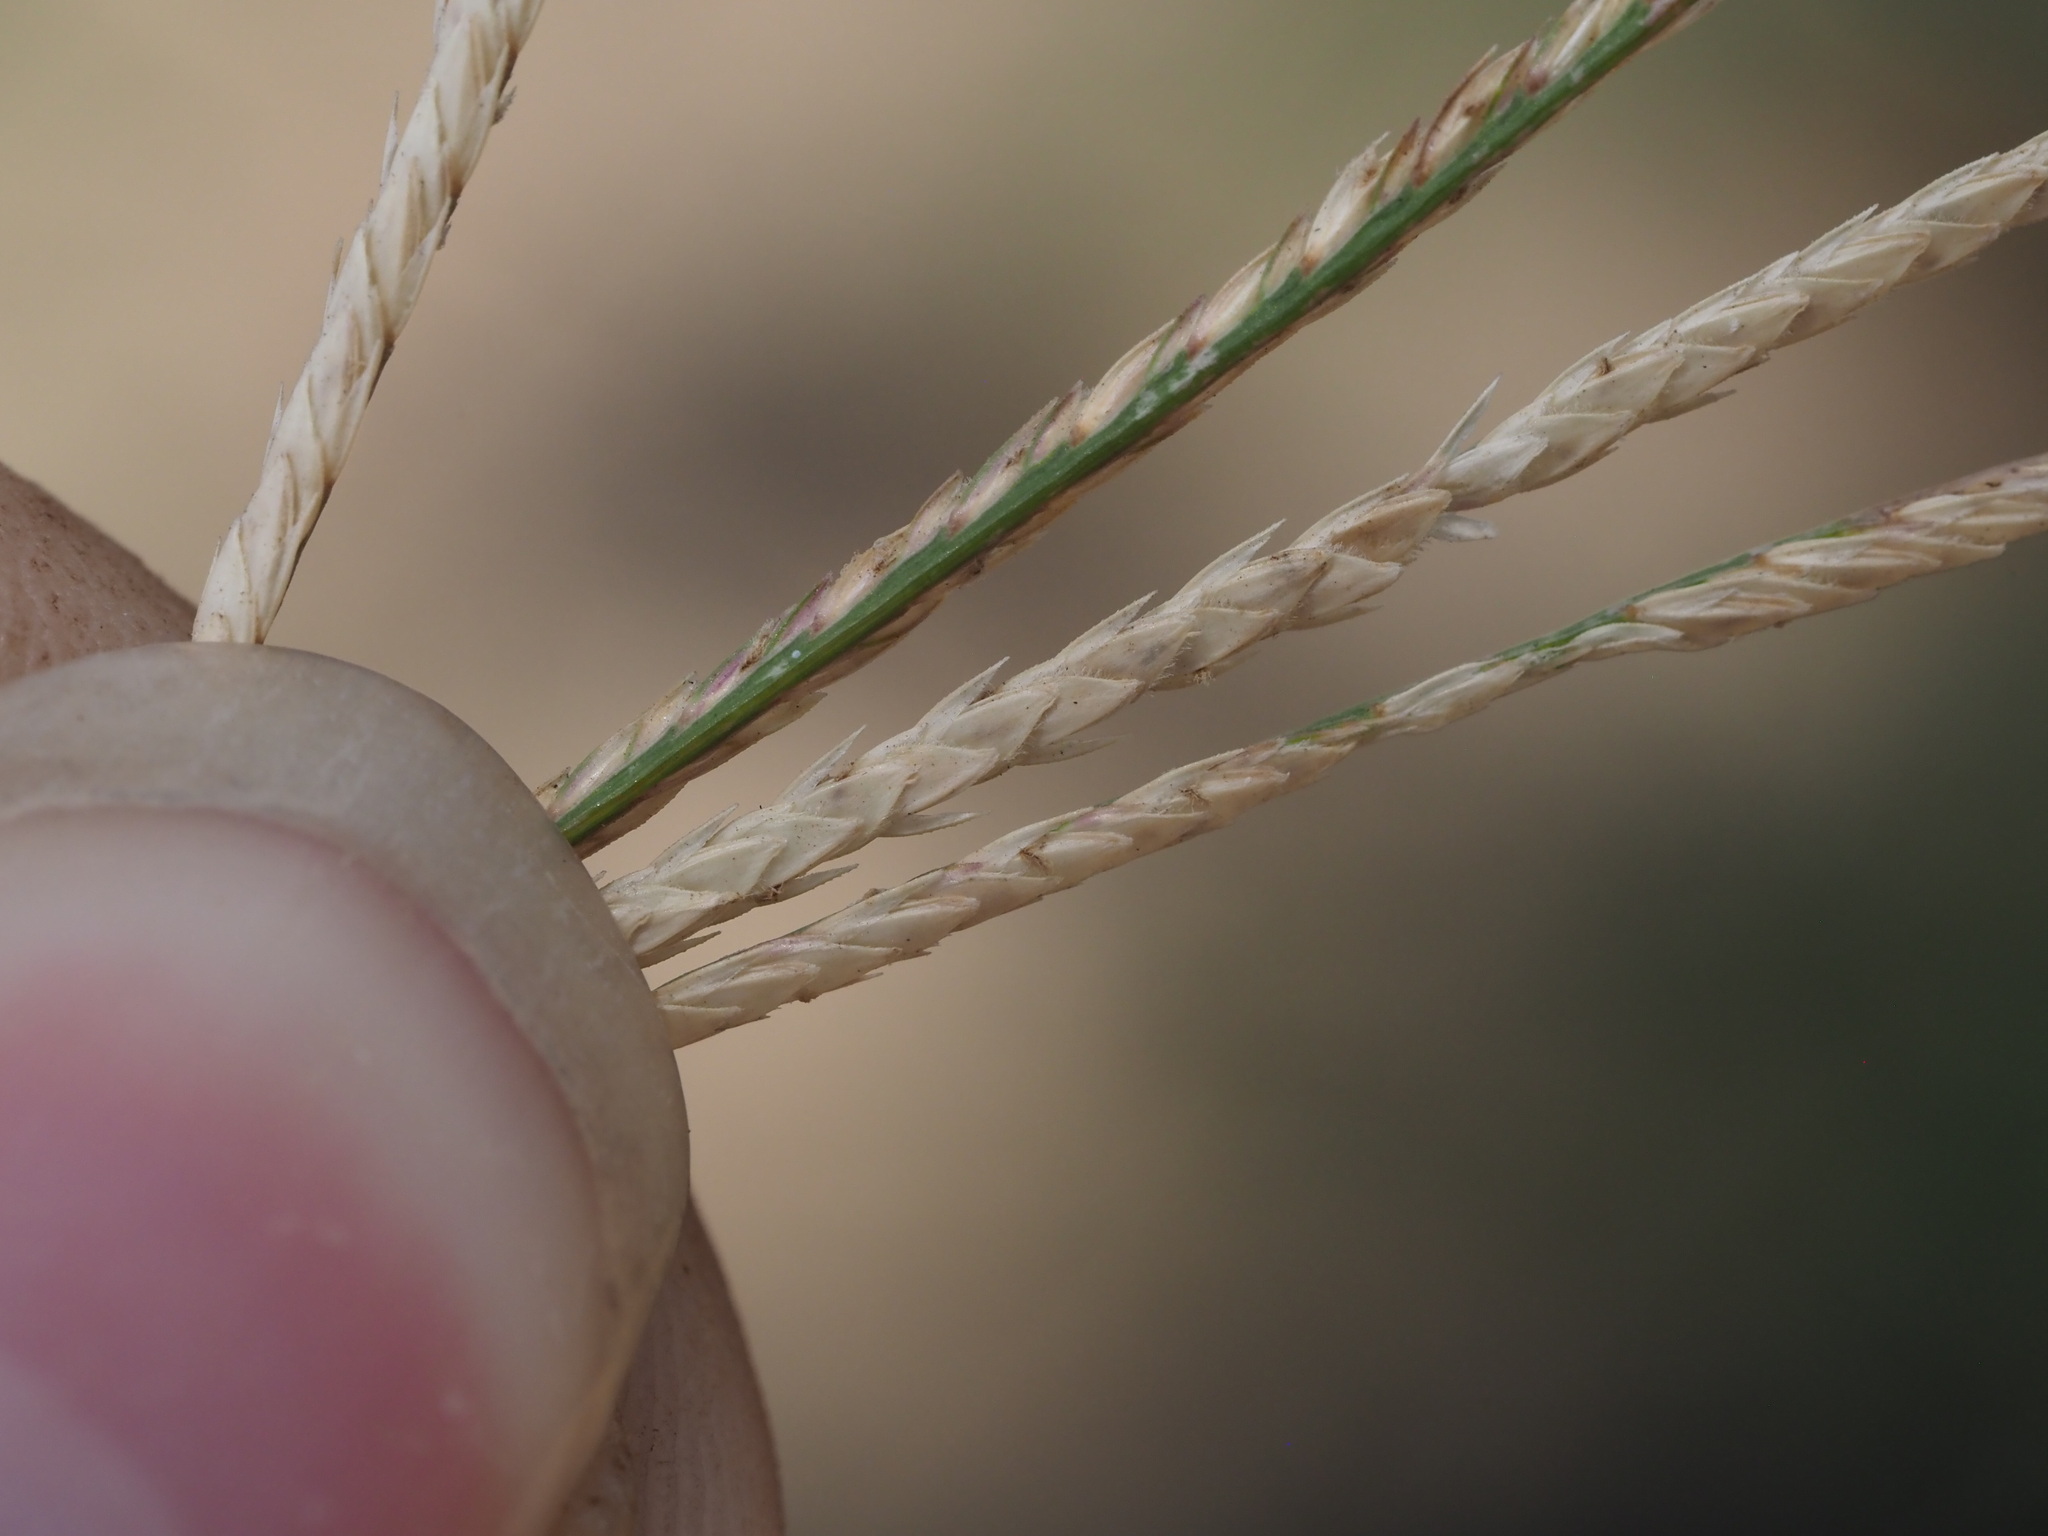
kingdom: Plantae
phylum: Tracheophyta
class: Liliopsida
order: Poales
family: Poaceae
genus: Cynodon
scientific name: Cynodon dactylon
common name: Bermuda grass
